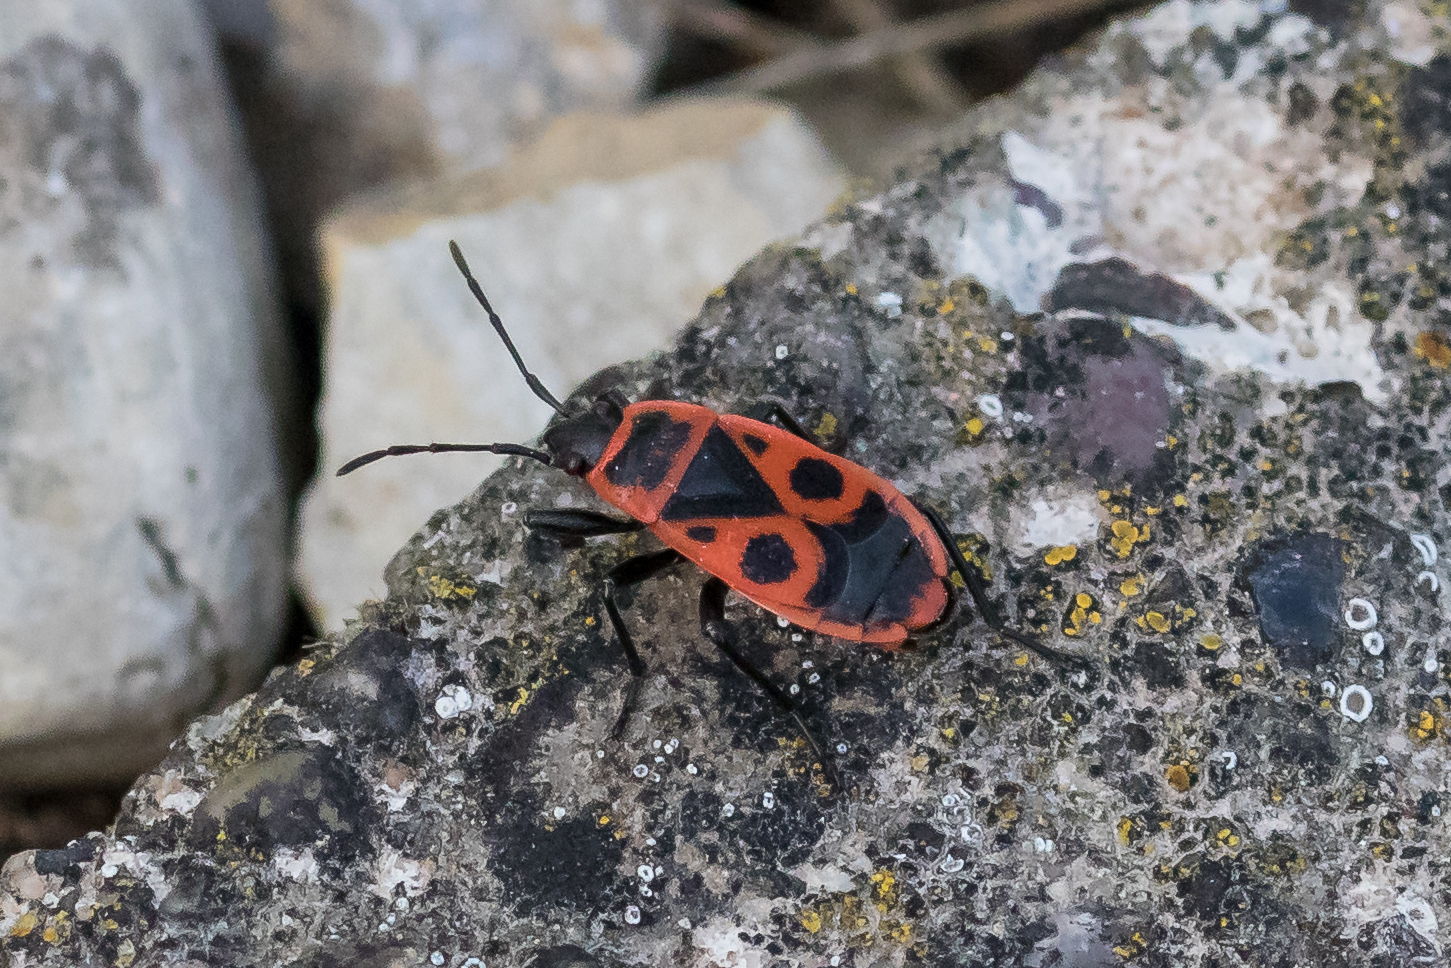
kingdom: Animalia
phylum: Arthropoda
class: Insecta
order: Hemiptera
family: Pyrrhocoridae
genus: Pyrrhocoris
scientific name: Pyrrhocoris apterus
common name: Firebug
